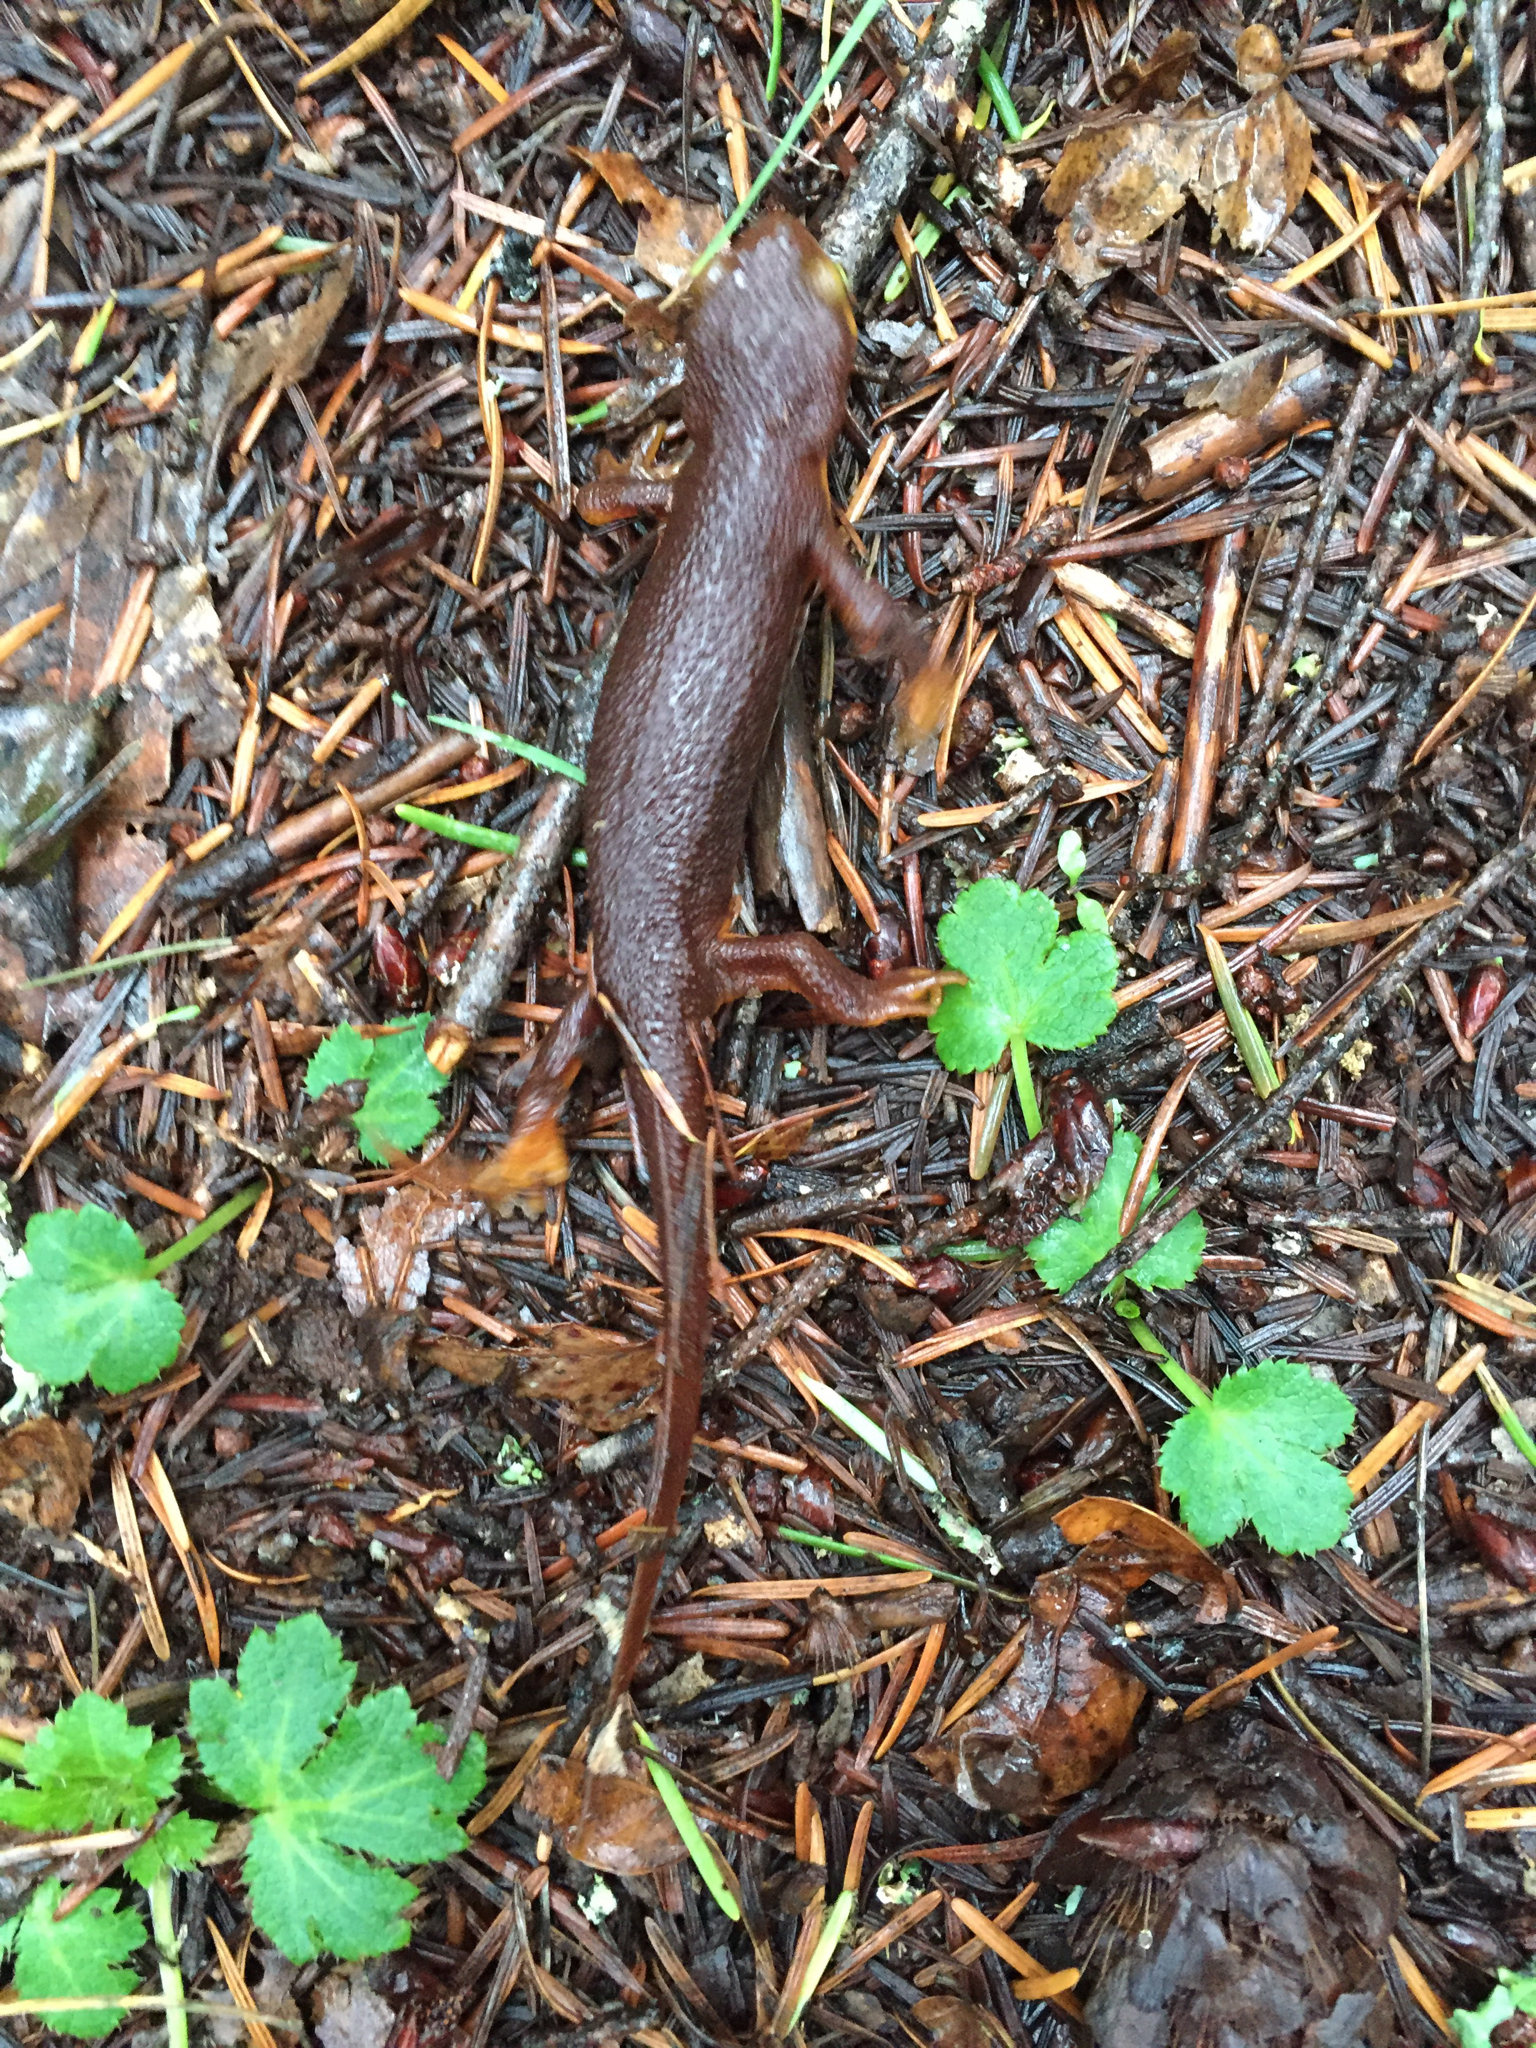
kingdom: Animalia
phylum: Chordata
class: Amphibia
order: Caudata
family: Salamandridae
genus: Taricha
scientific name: Taricha torosa
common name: California newt
